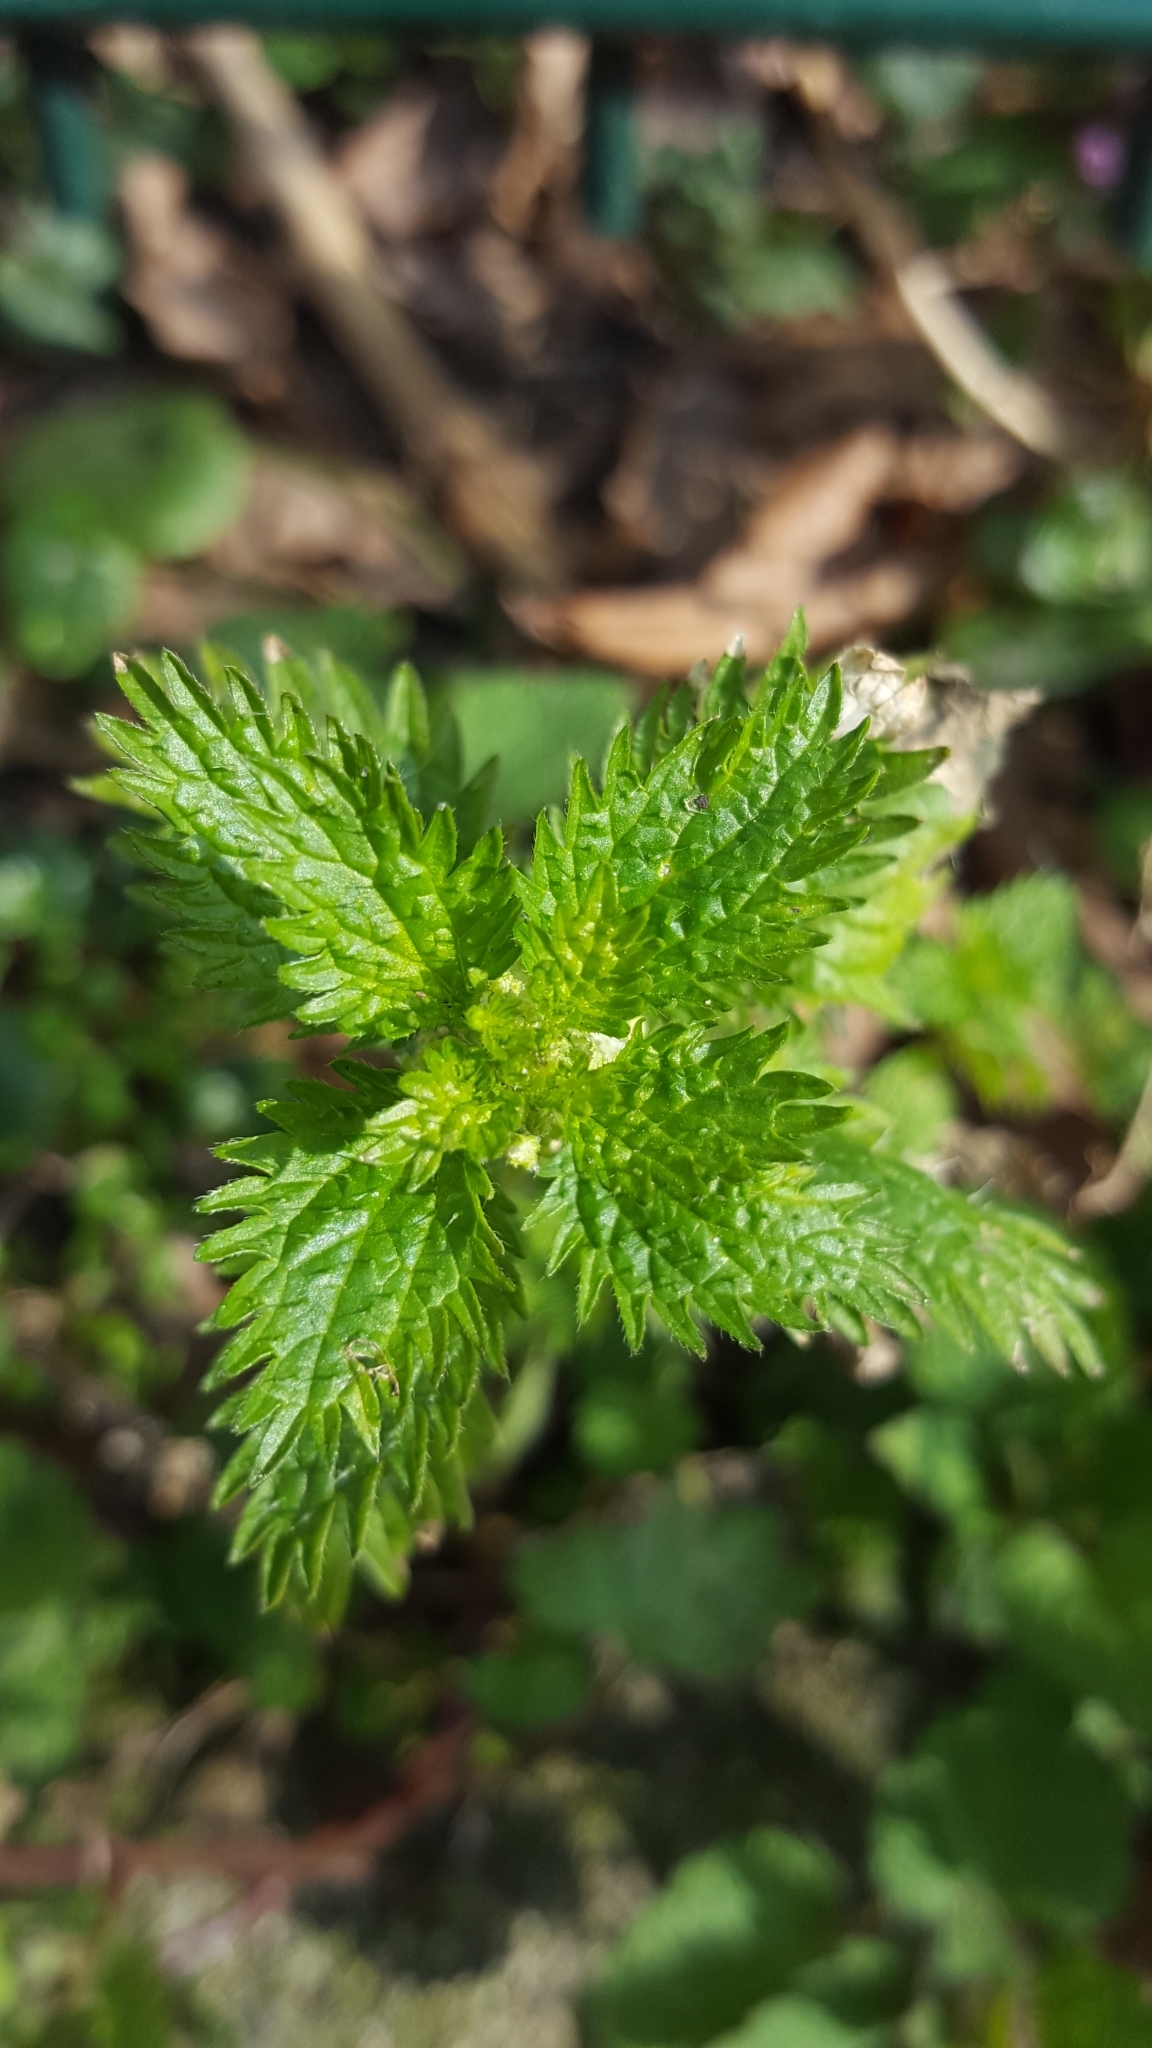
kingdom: Plantae
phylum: Tracheophyta
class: Magnoliopsida
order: Rosales
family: Urticaceae
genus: Urtica
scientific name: Urtica urens
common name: Dwarf nettle
